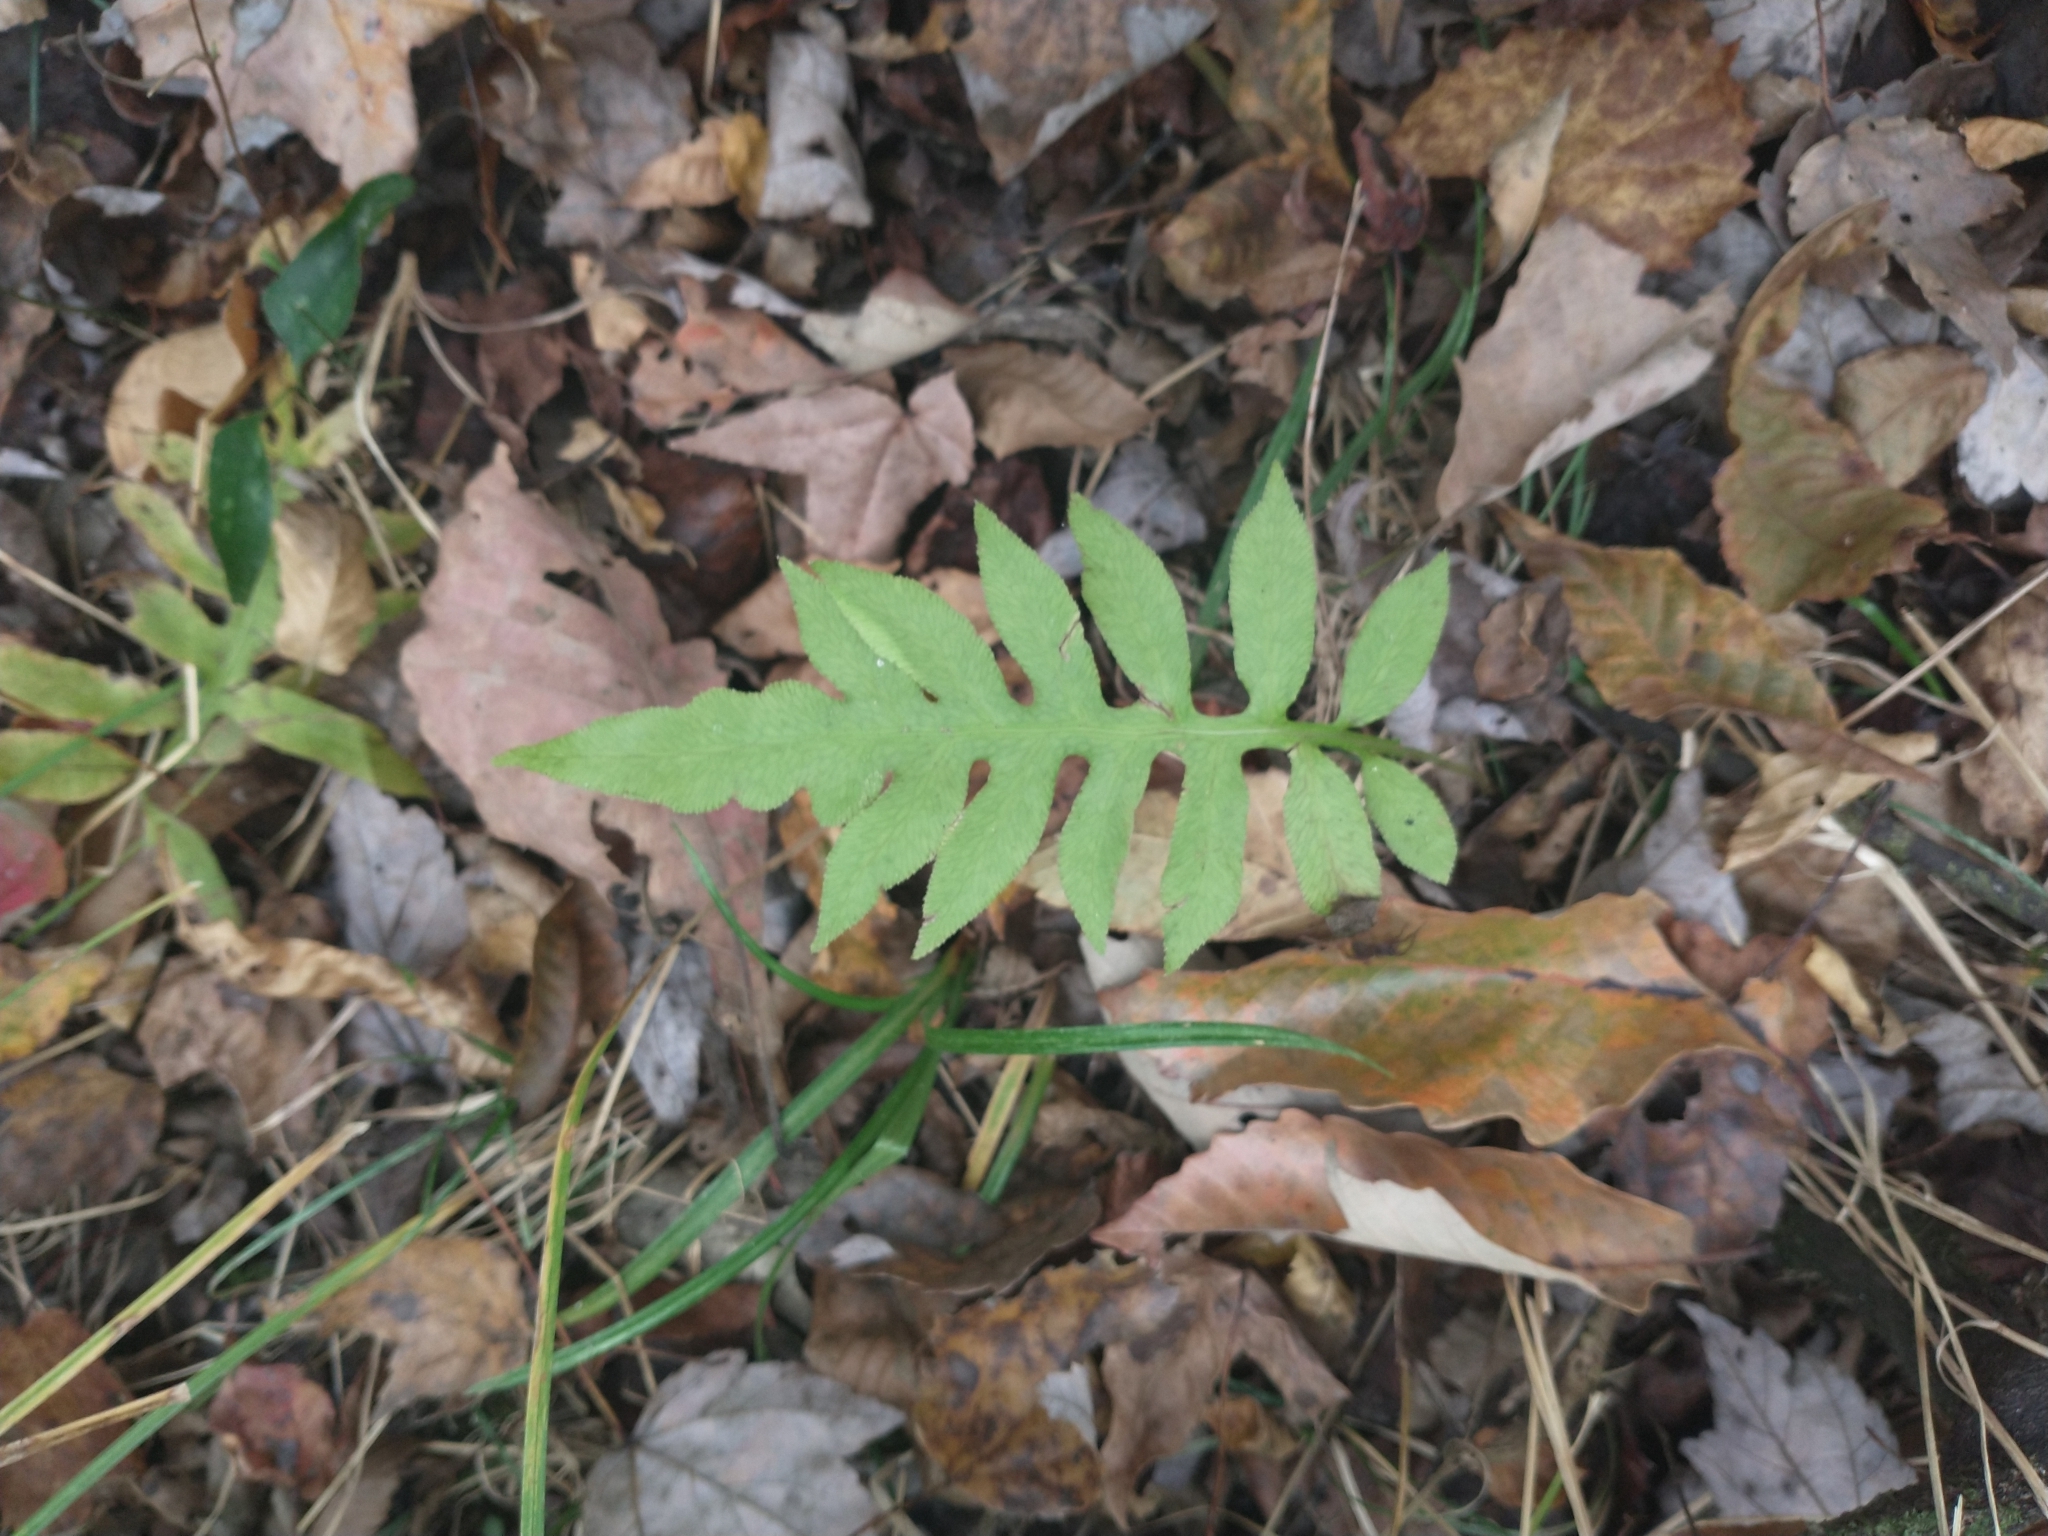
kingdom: Plantae
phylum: Tracheophyta
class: Polypodiopsida
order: Polypodiales
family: Blechnaceae
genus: Lorinseria
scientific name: Lorinseria areolata
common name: Dwarf chain fern
